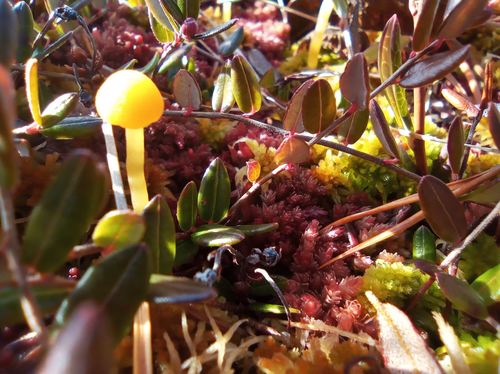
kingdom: Fungi
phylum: Basidiomycota
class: Agaricomycetes
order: Agaricales
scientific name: Agaricales
